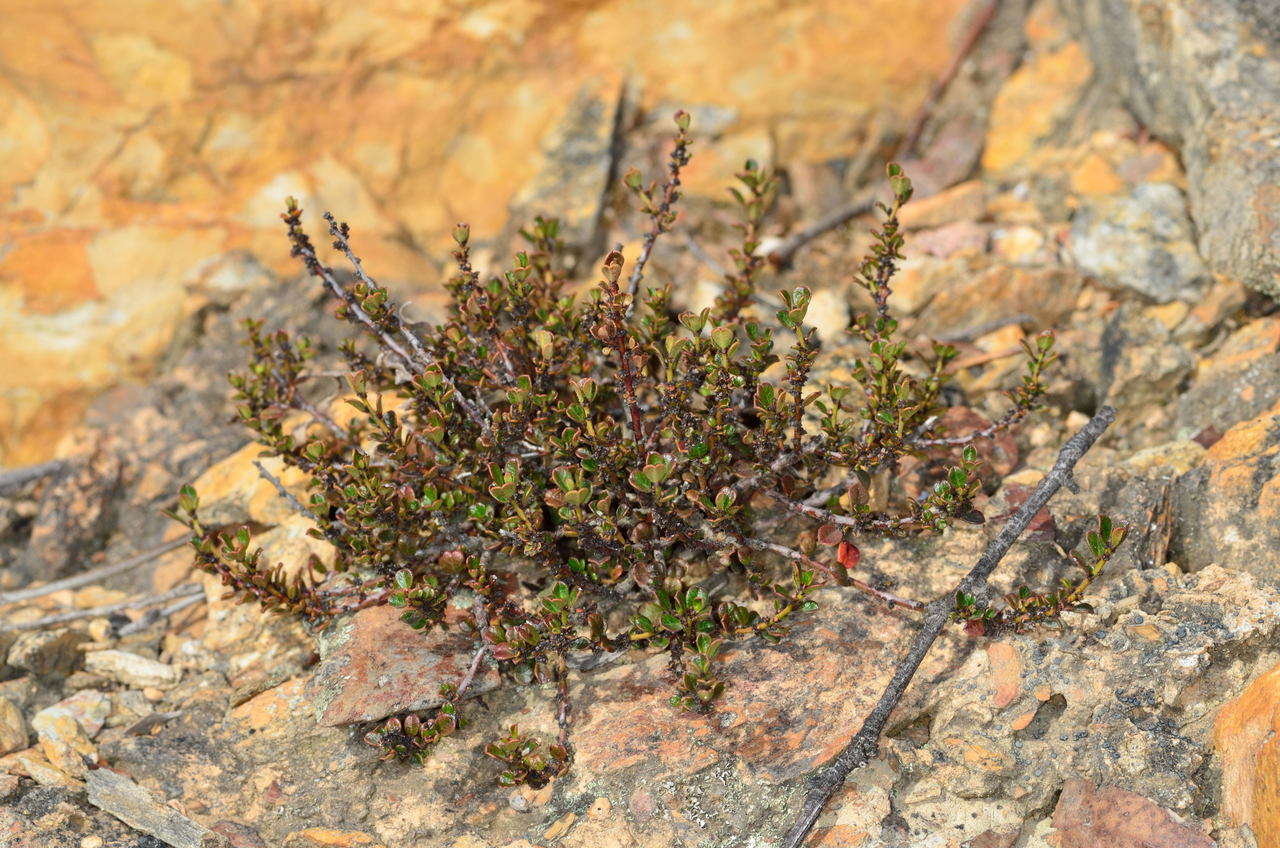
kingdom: Plantae
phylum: Tracheophyta
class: Magnoliopsida
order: Malpighiales
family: Phyllanthaceae
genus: Phyllanthus
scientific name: Phyllanthus hirtellus
